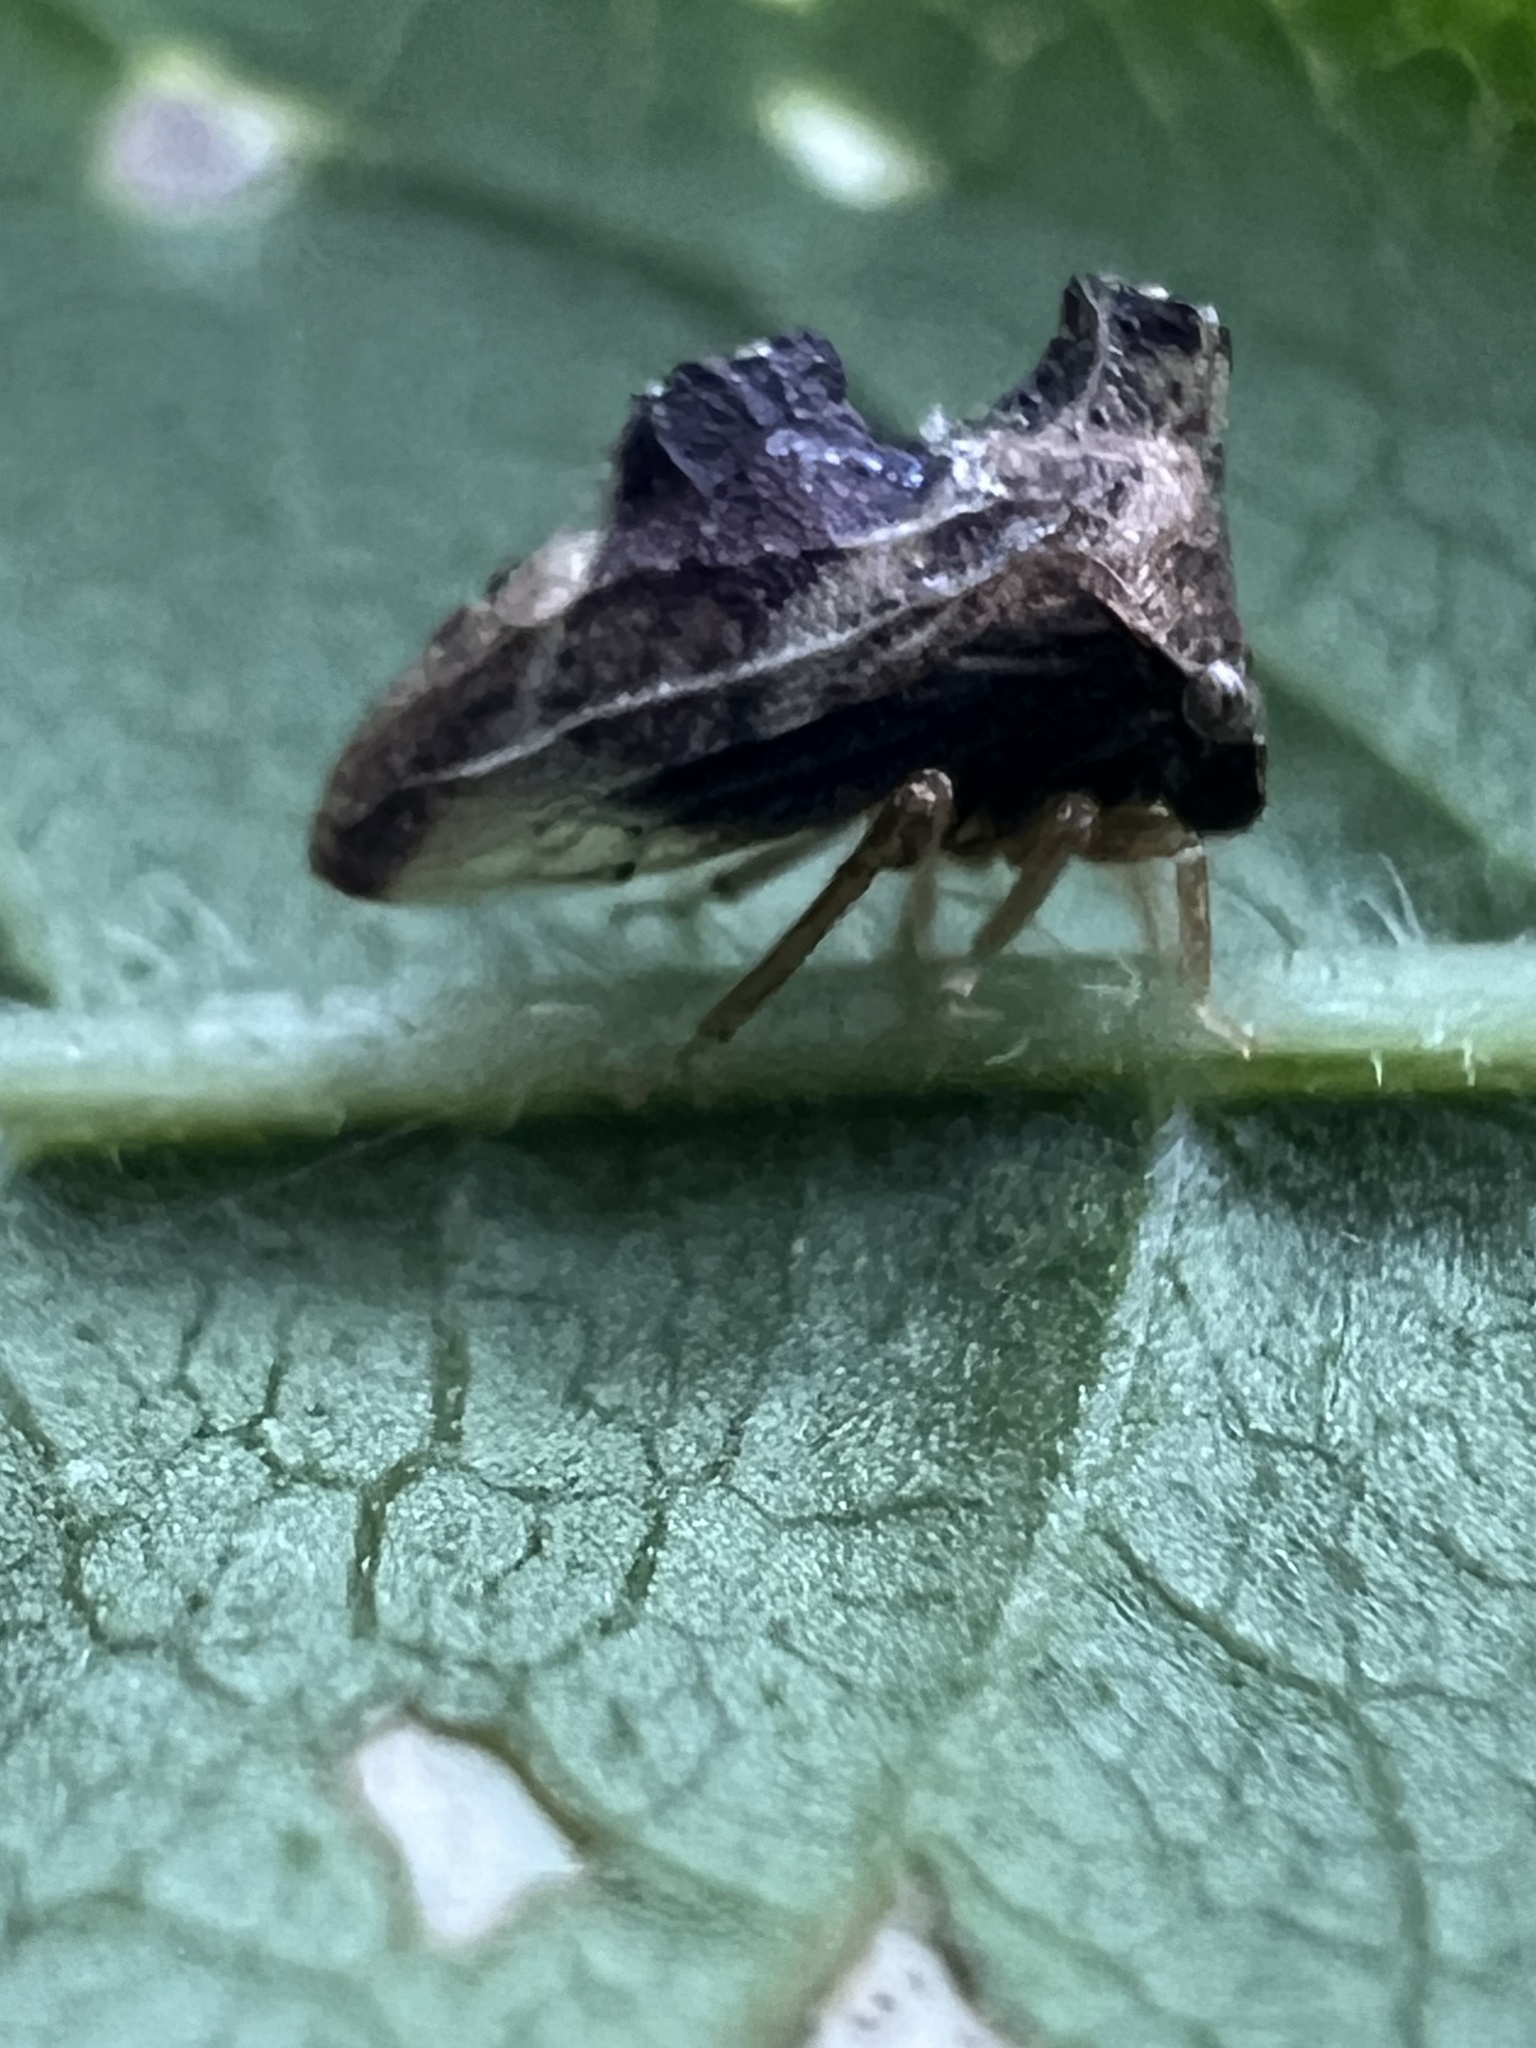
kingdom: Animalia
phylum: Arthropoda
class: Insecta
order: Hemiptera
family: Membracidae
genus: Entylia
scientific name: Entylia carinata
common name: Keeled treehopper
